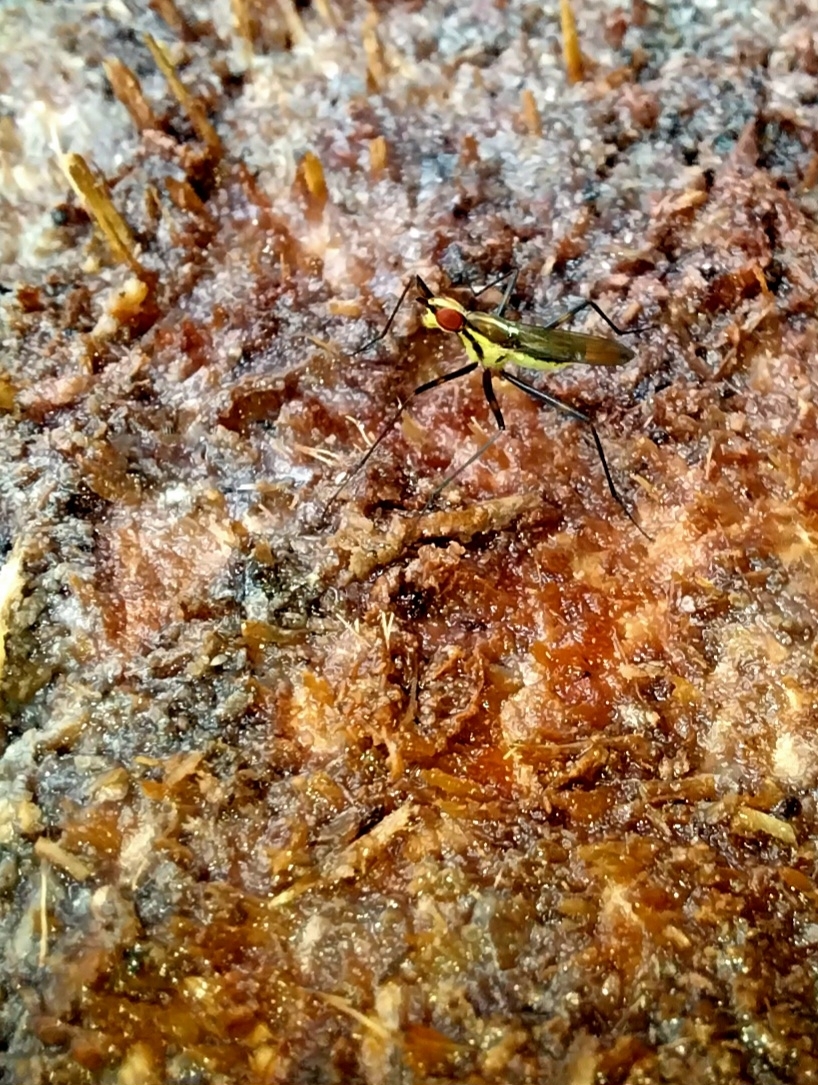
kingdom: Animalia
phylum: Arthropoda
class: Insecta
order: Diptera
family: Neriidae
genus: Telostylinus
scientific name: Telostylinus lineolatus
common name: Banana stalk fly
